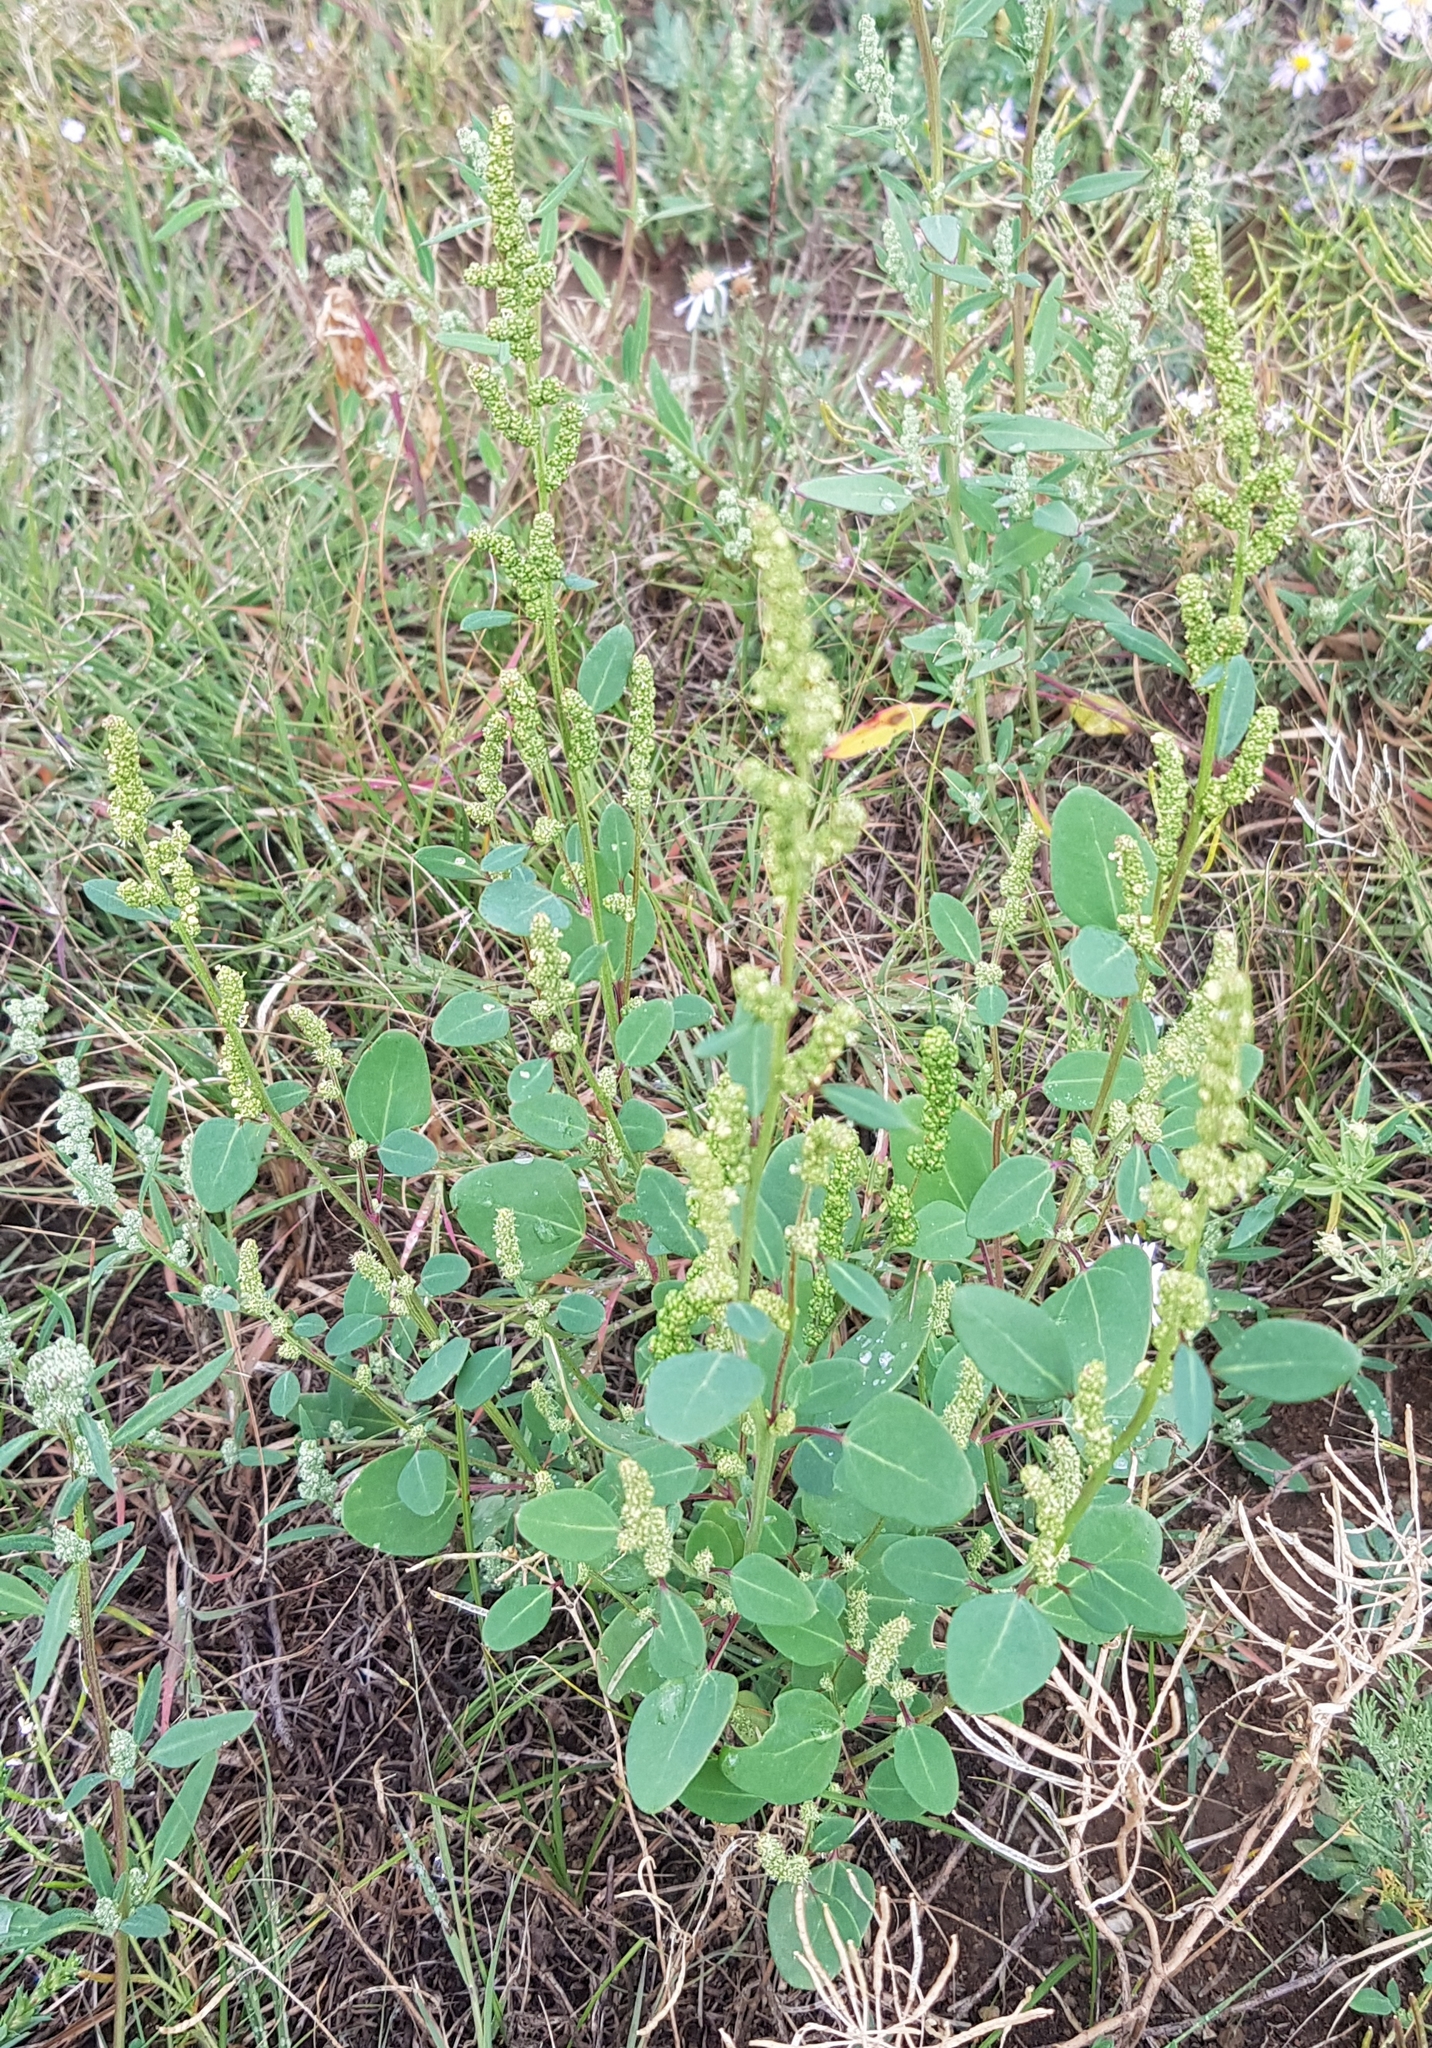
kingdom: Plantae
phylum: Tracheophyta
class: Magnoliopsida
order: Caryophyllales
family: Amaranthaceae
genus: Chenopodium
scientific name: Chenopodium acuminatum
